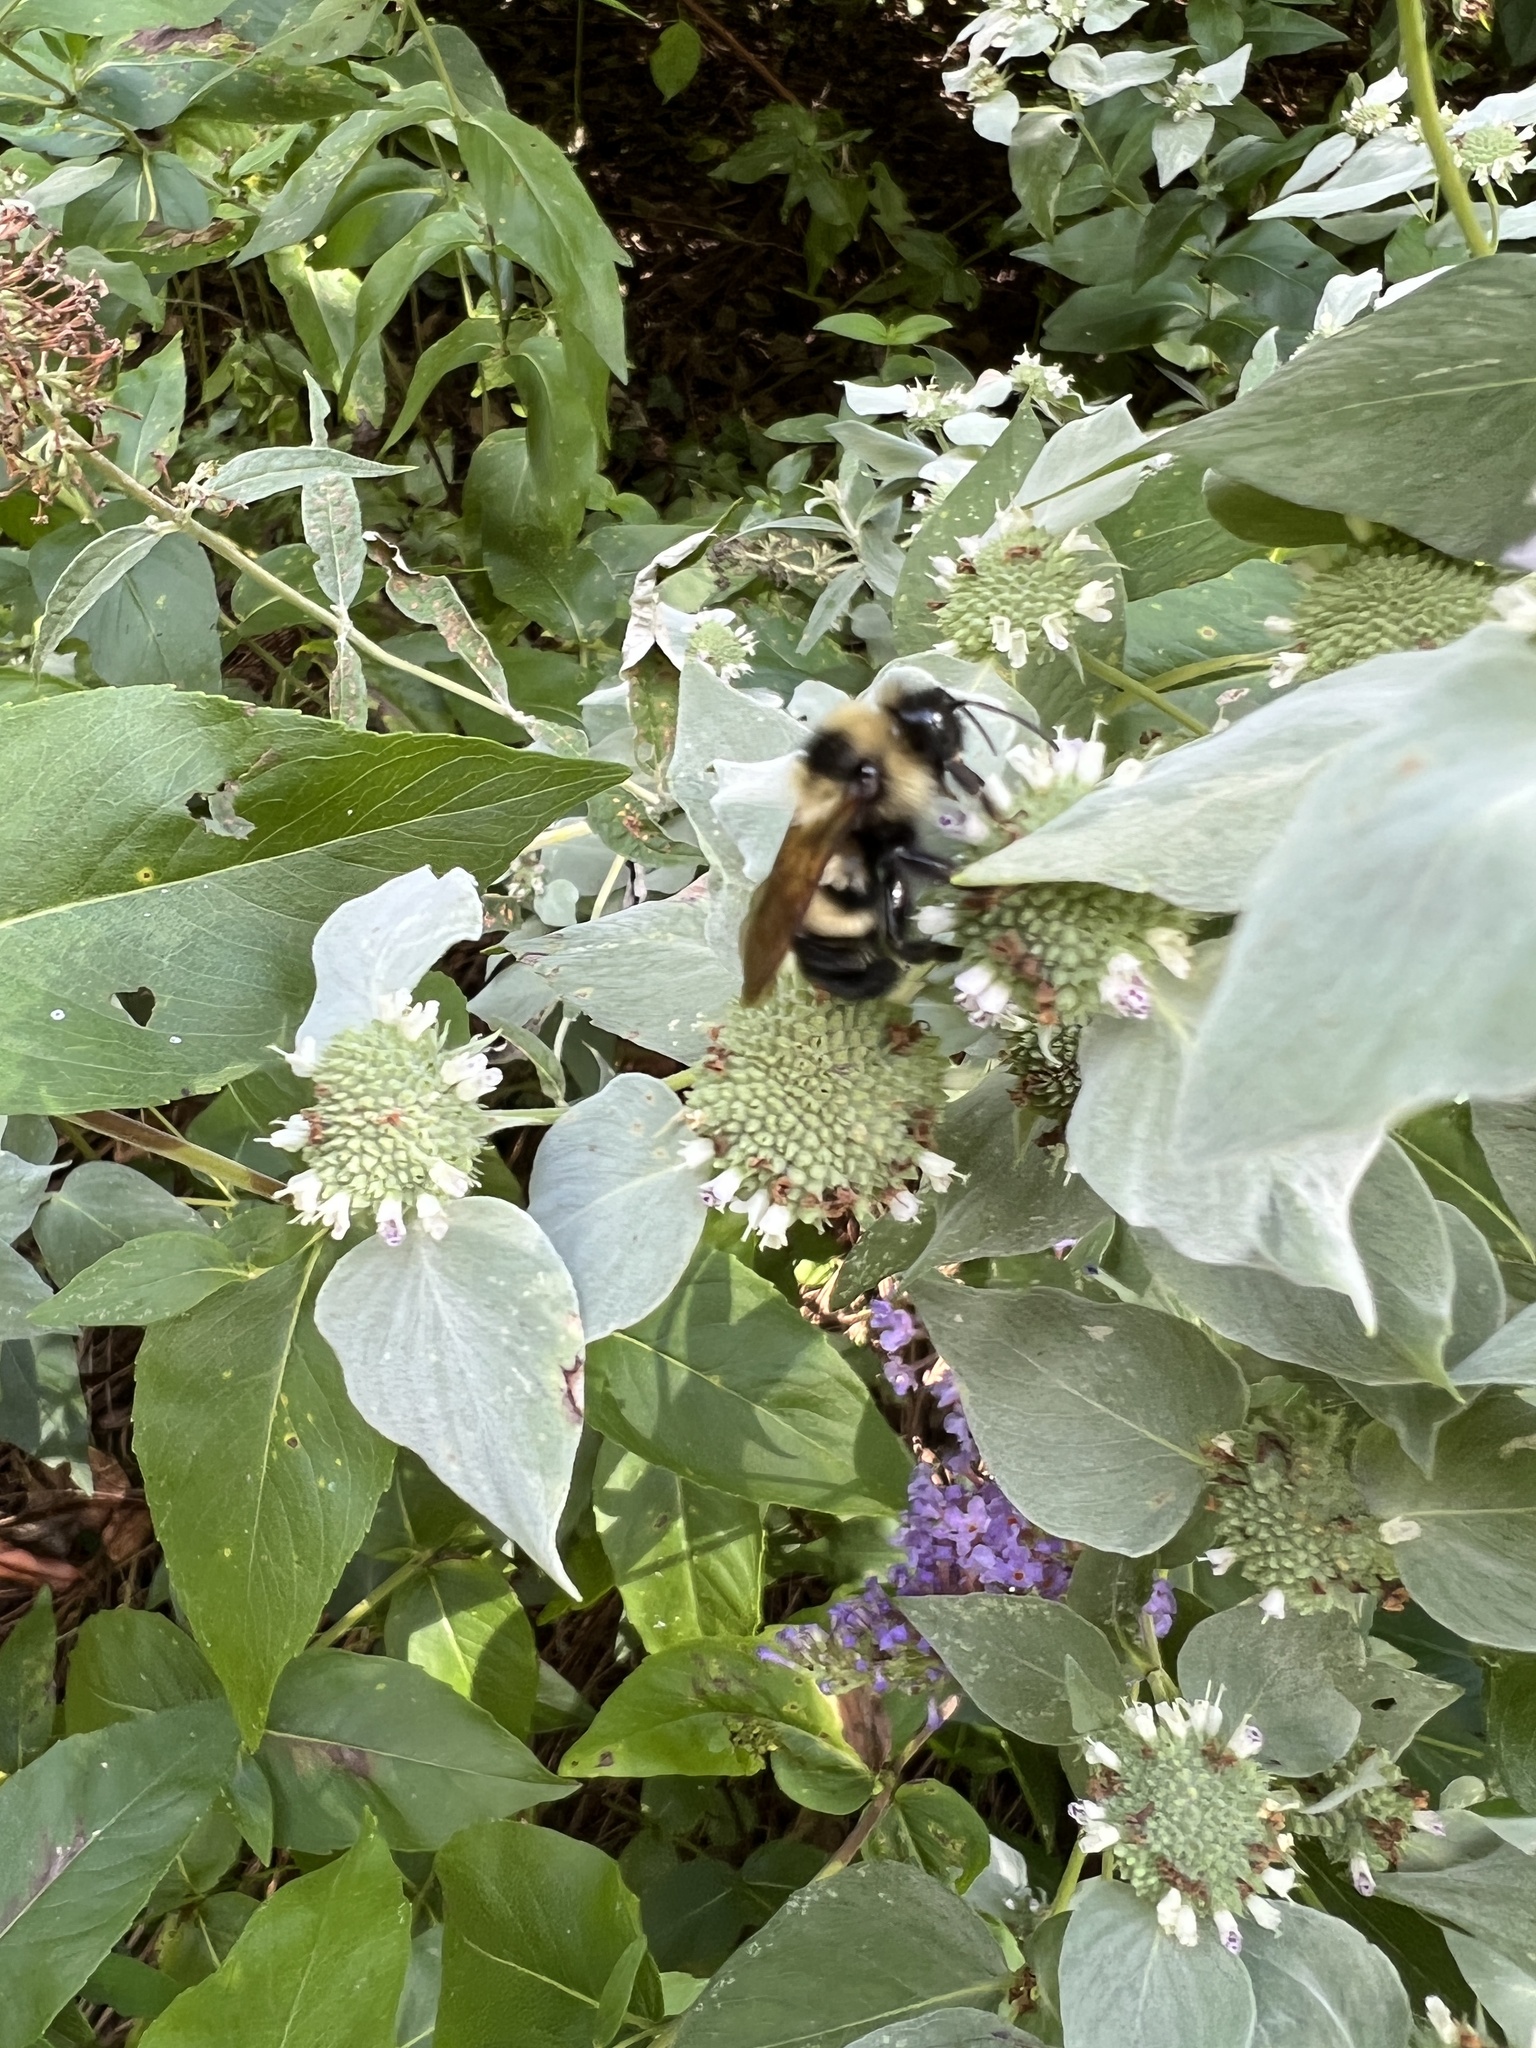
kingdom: Animalia
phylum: Arthropoda
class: Insecta
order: Hymenoptera
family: Apidae
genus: Bombus
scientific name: Bombus citrinus
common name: Lemon cuckoo bumble bee
